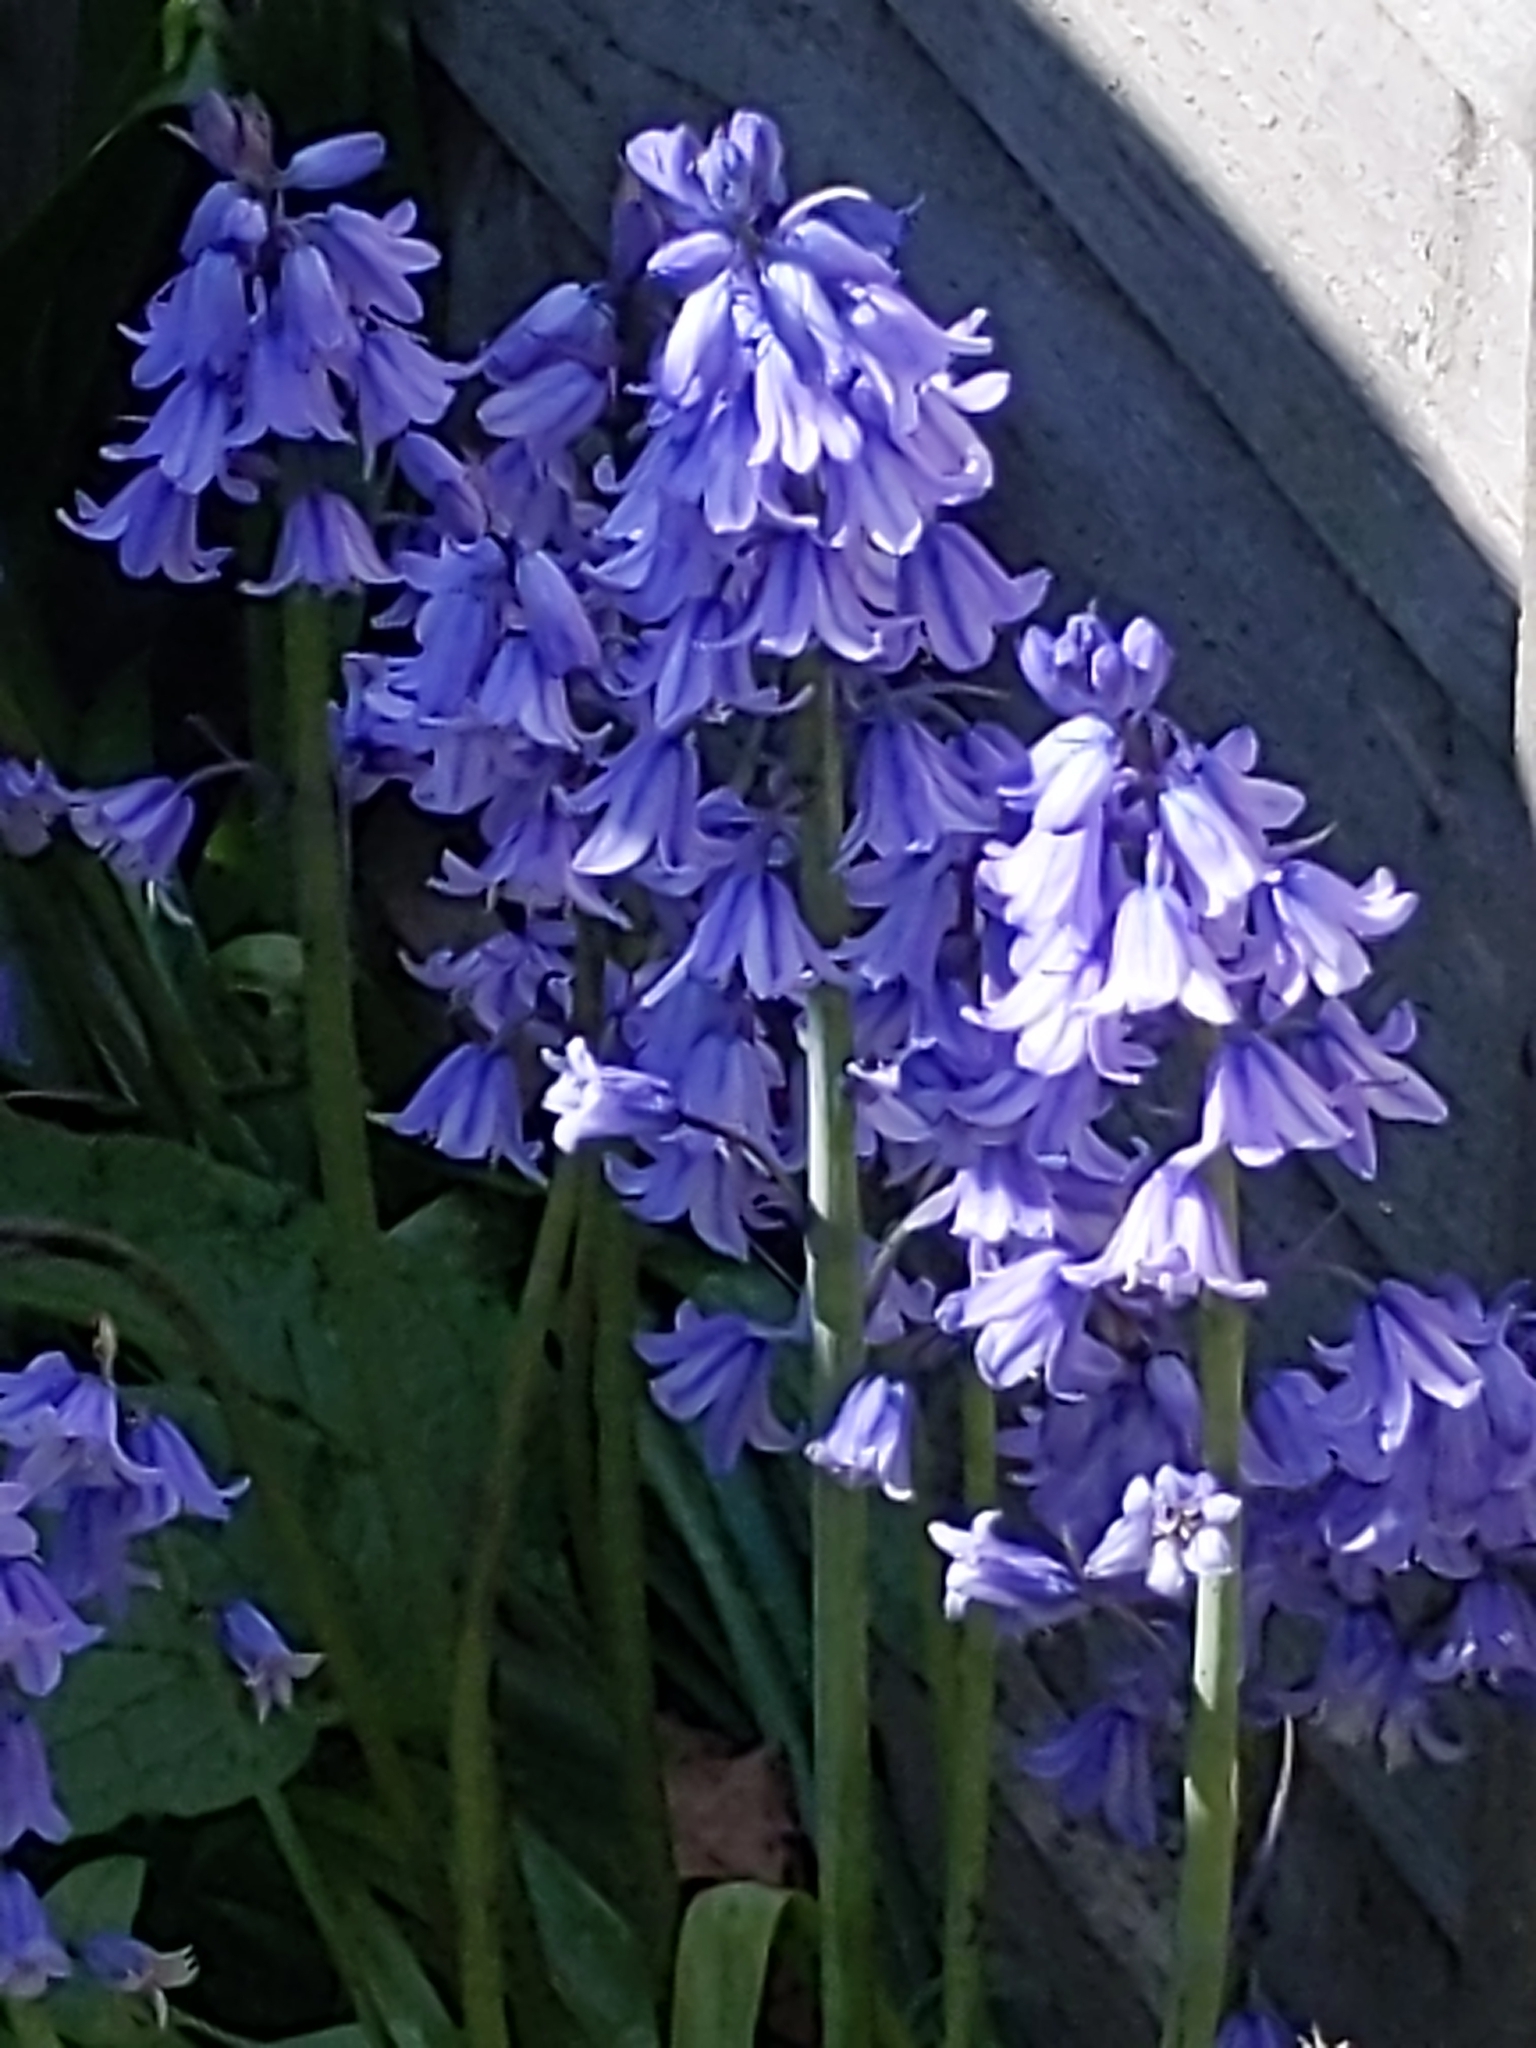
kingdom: Plantae
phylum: Tracheophyta
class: Liliopsida
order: Asparagales
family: Asparagaceae
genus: Hyacinthoides
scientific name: Hyacinthoides hispanica
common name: Spanish bluebell
